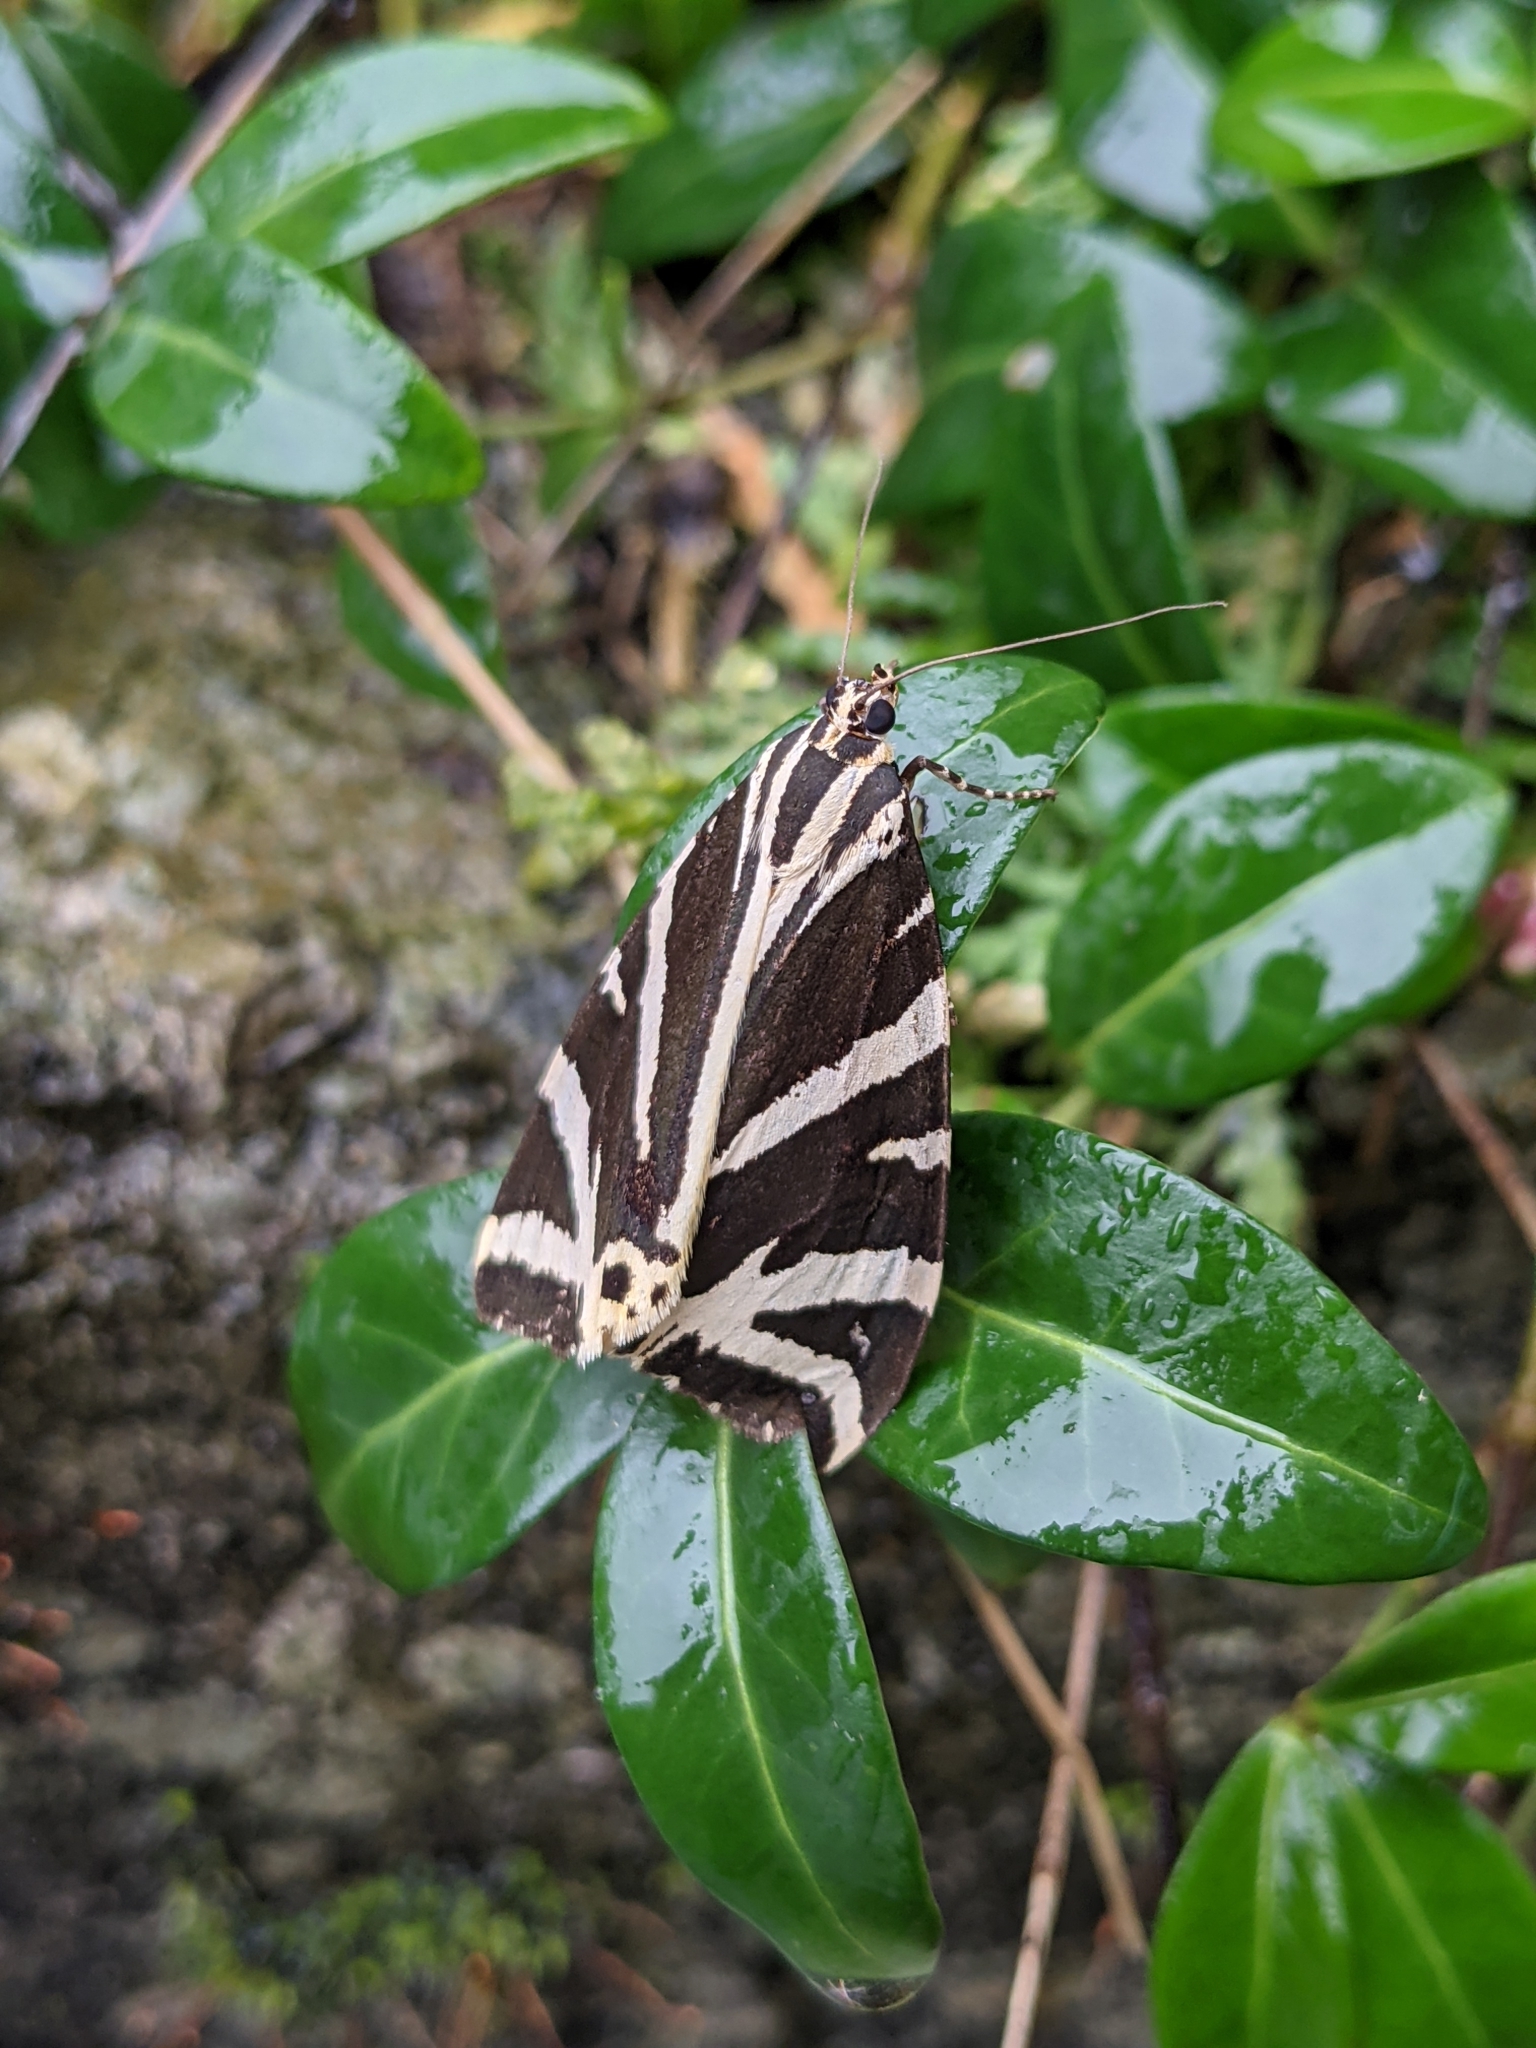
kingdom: Animalia
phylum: Arthropoda
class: Insecta
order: Lepidoptera
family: Erebidae
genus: Euplagia
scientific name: Euplagia quadripunctaria
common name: Jersey tiger
